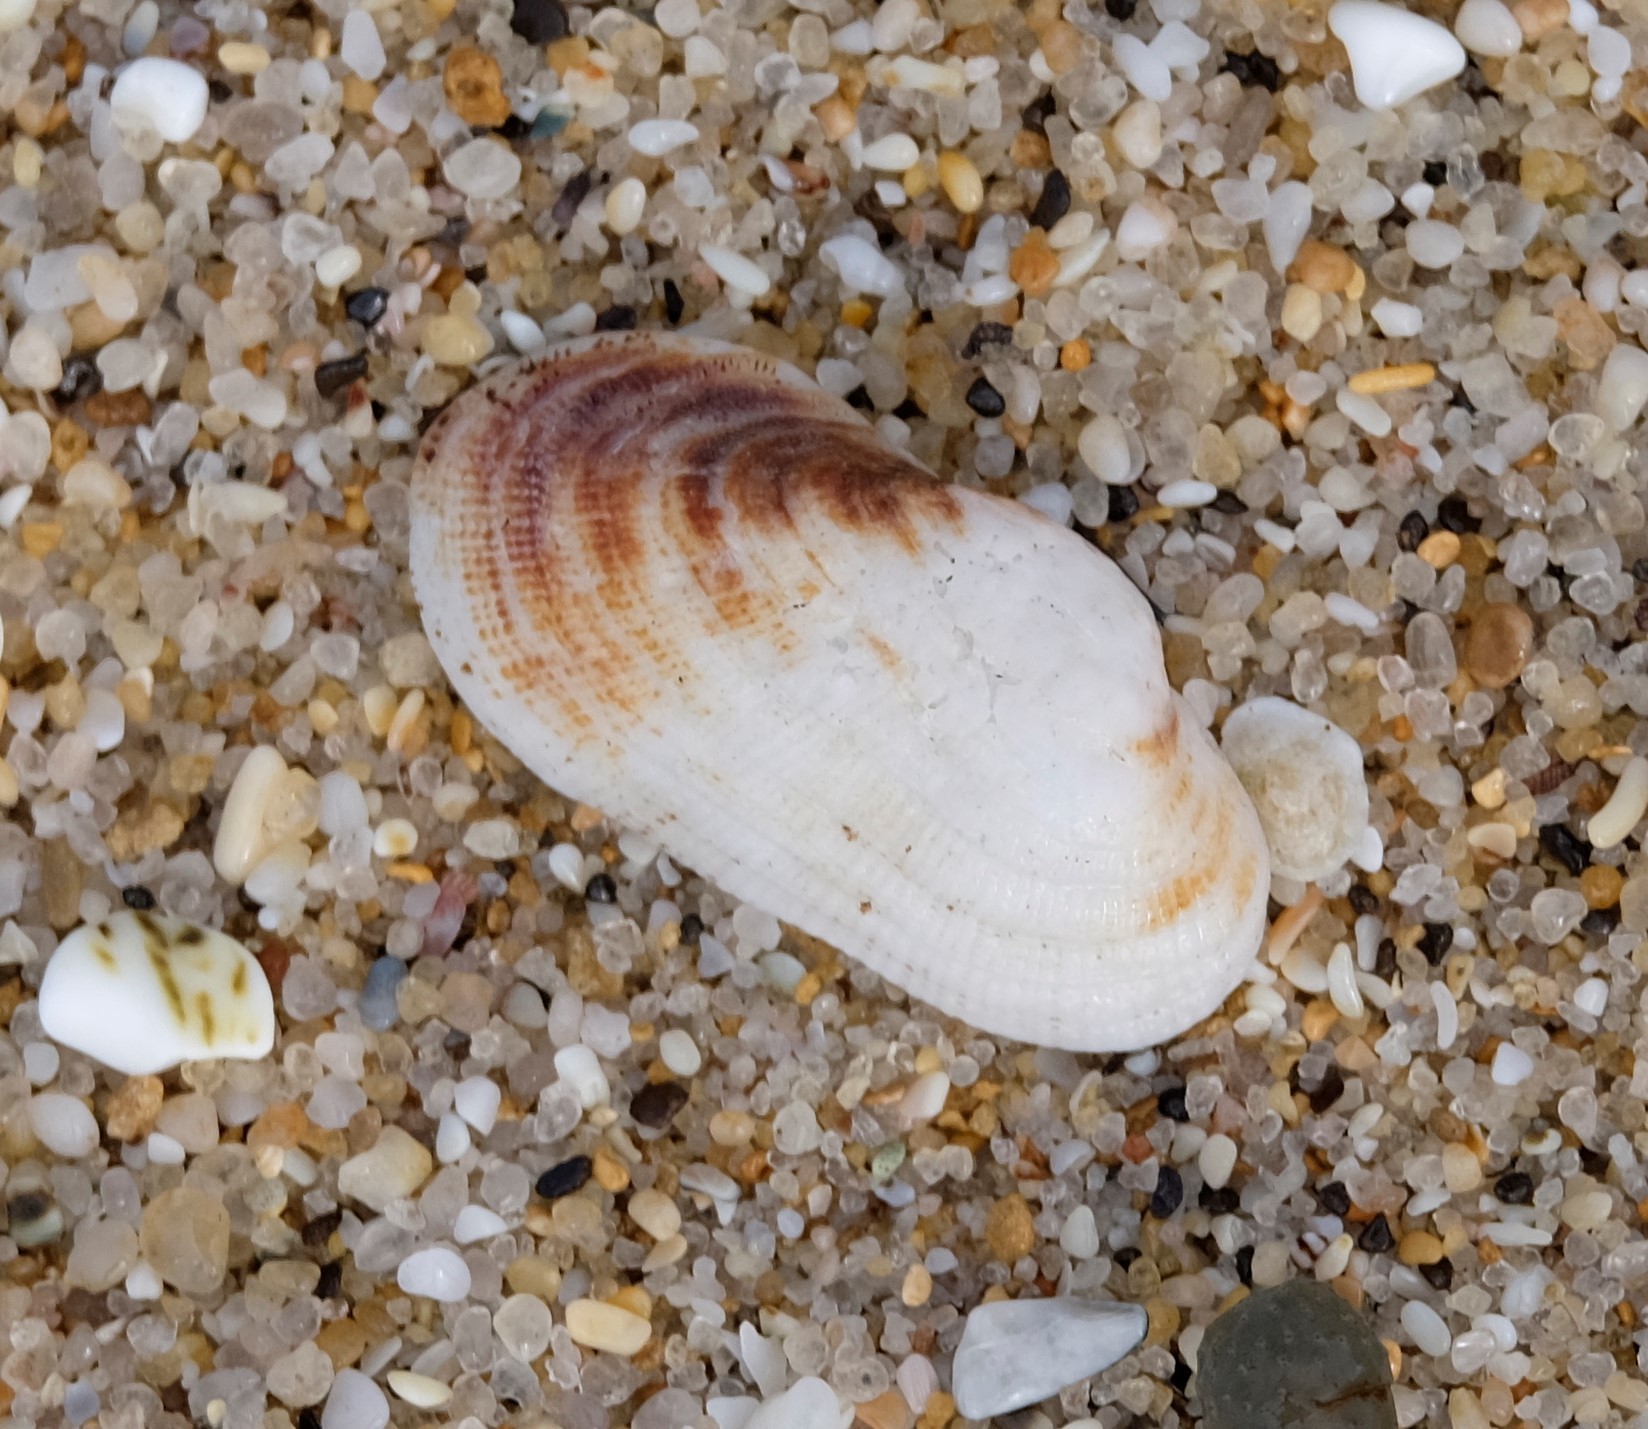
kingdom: Animalia
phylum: Mollusca
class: Bivalvia
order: Arcida
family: Arcidae
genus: Barbatia
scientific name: Barbatia pistachia
